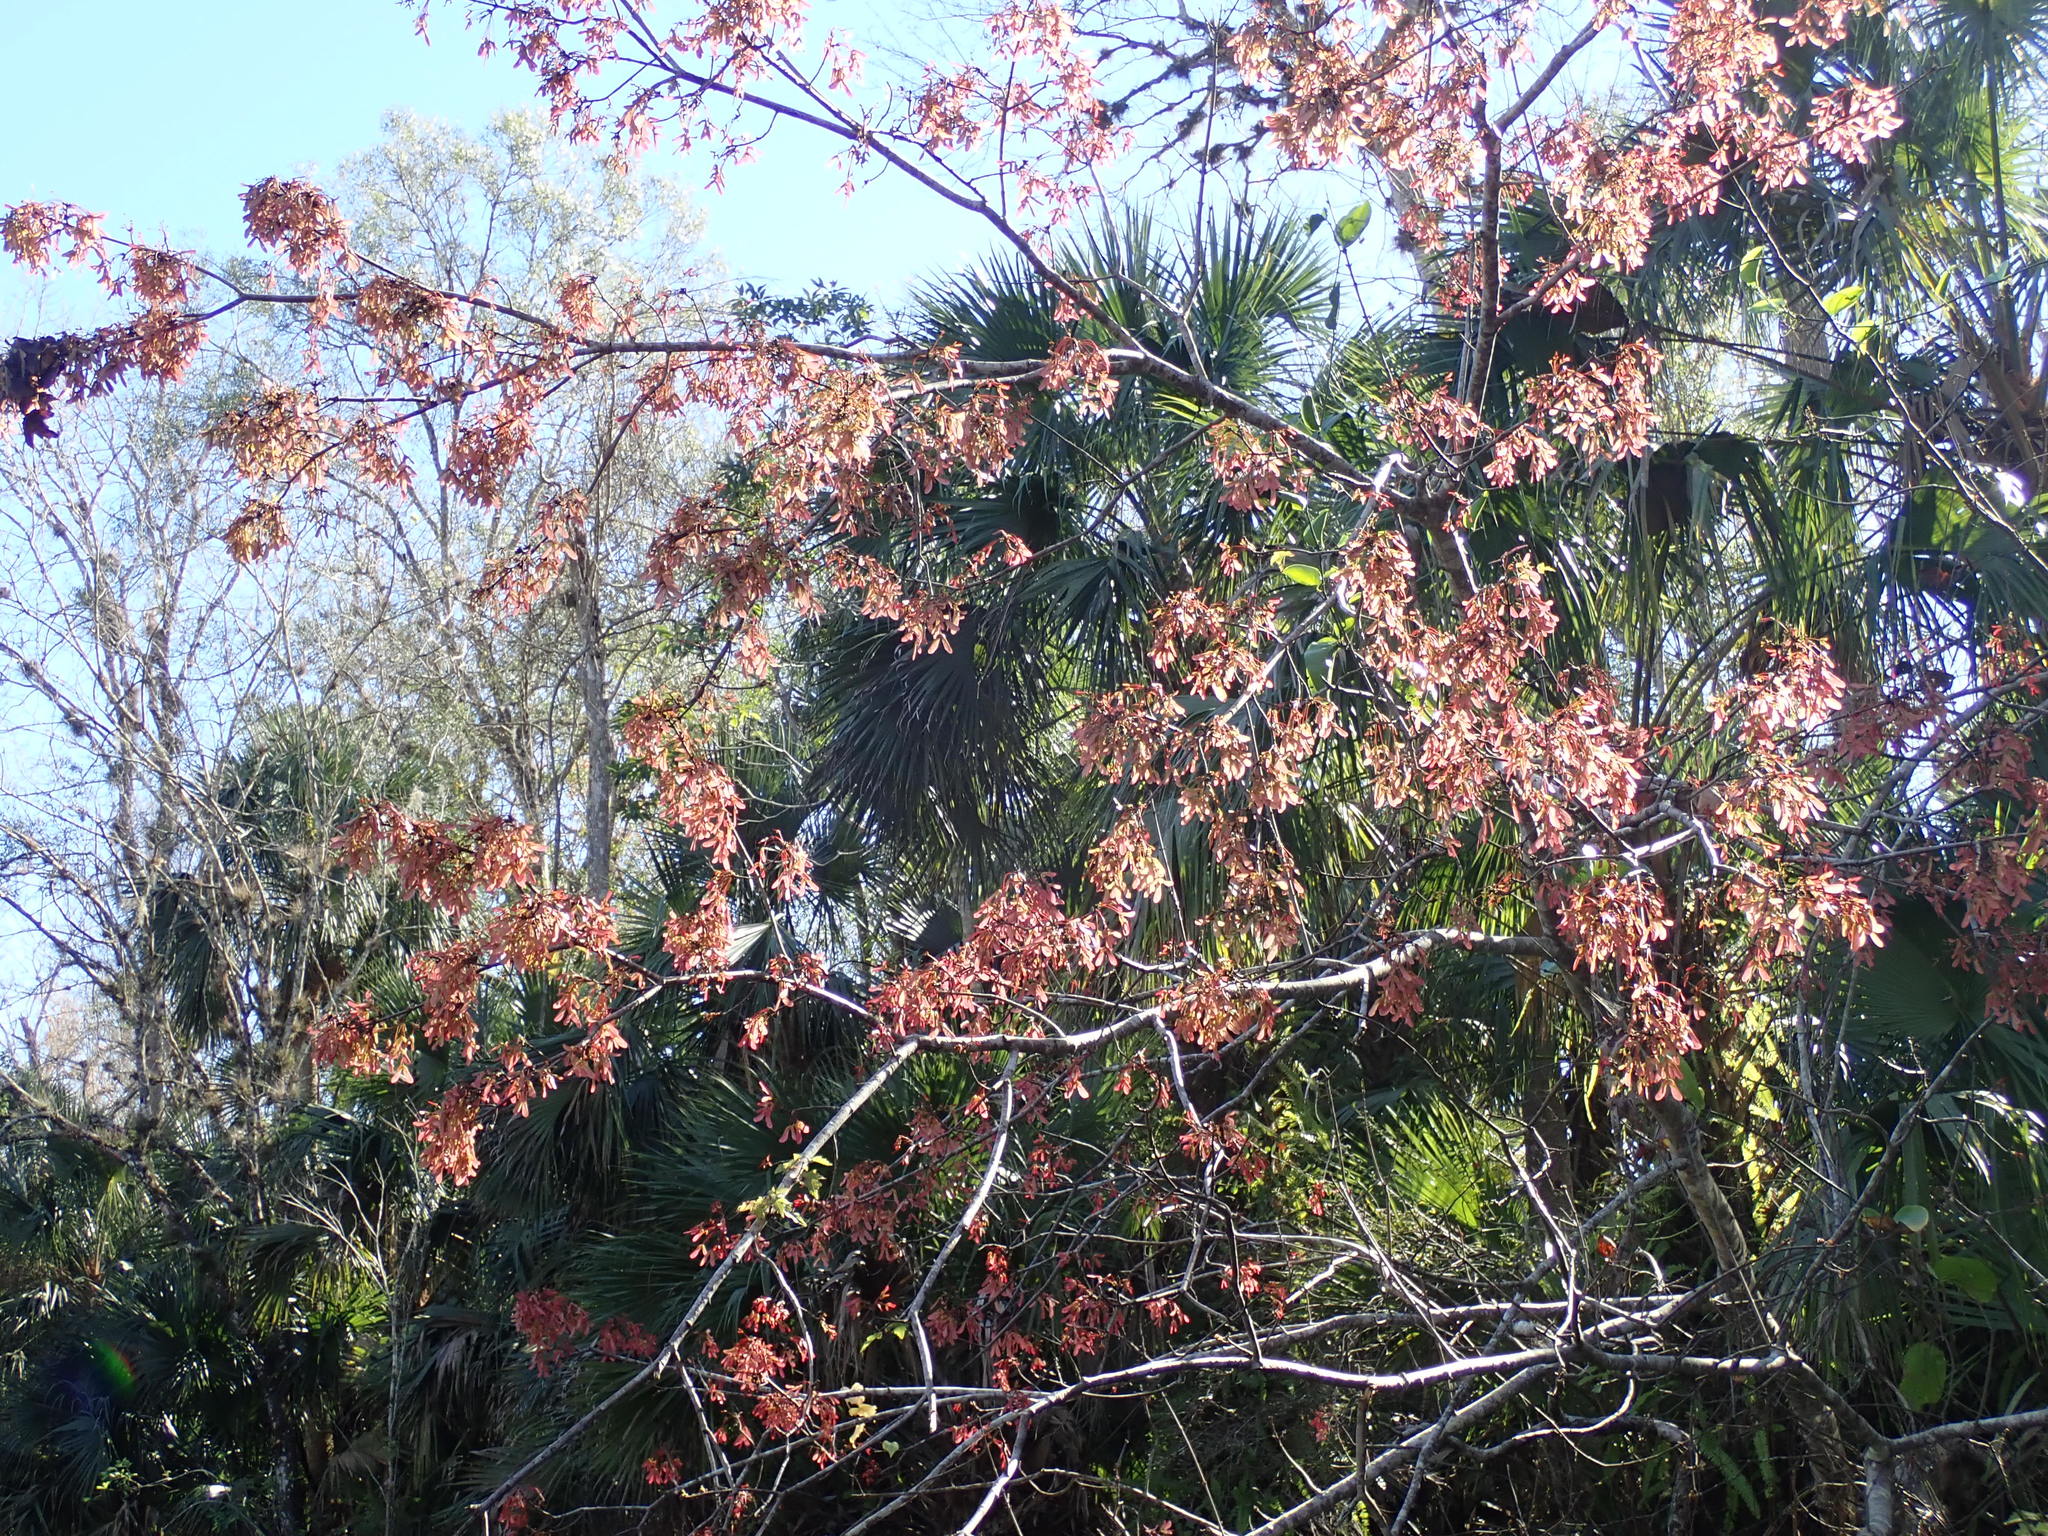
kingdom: Plantae
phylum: Tracheophyta
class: Magnoliopsida
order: Sapindales
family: Sapindaceae
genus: Acer
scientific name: Acer rubrum
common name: Red maple
